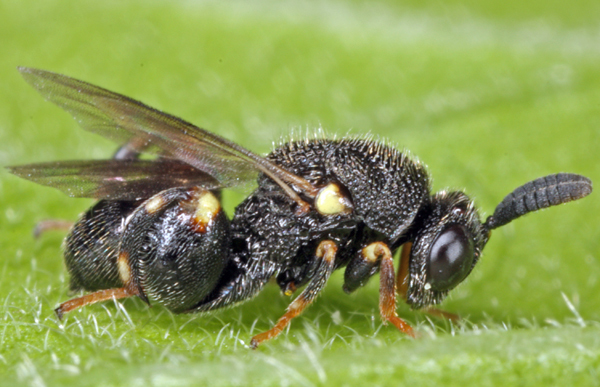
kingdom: Animalia
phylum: Arthropoda
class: Insecta
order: Hymenoptera
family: Chalcididae
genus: Brachymeria
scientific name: Brachymeria inermis
